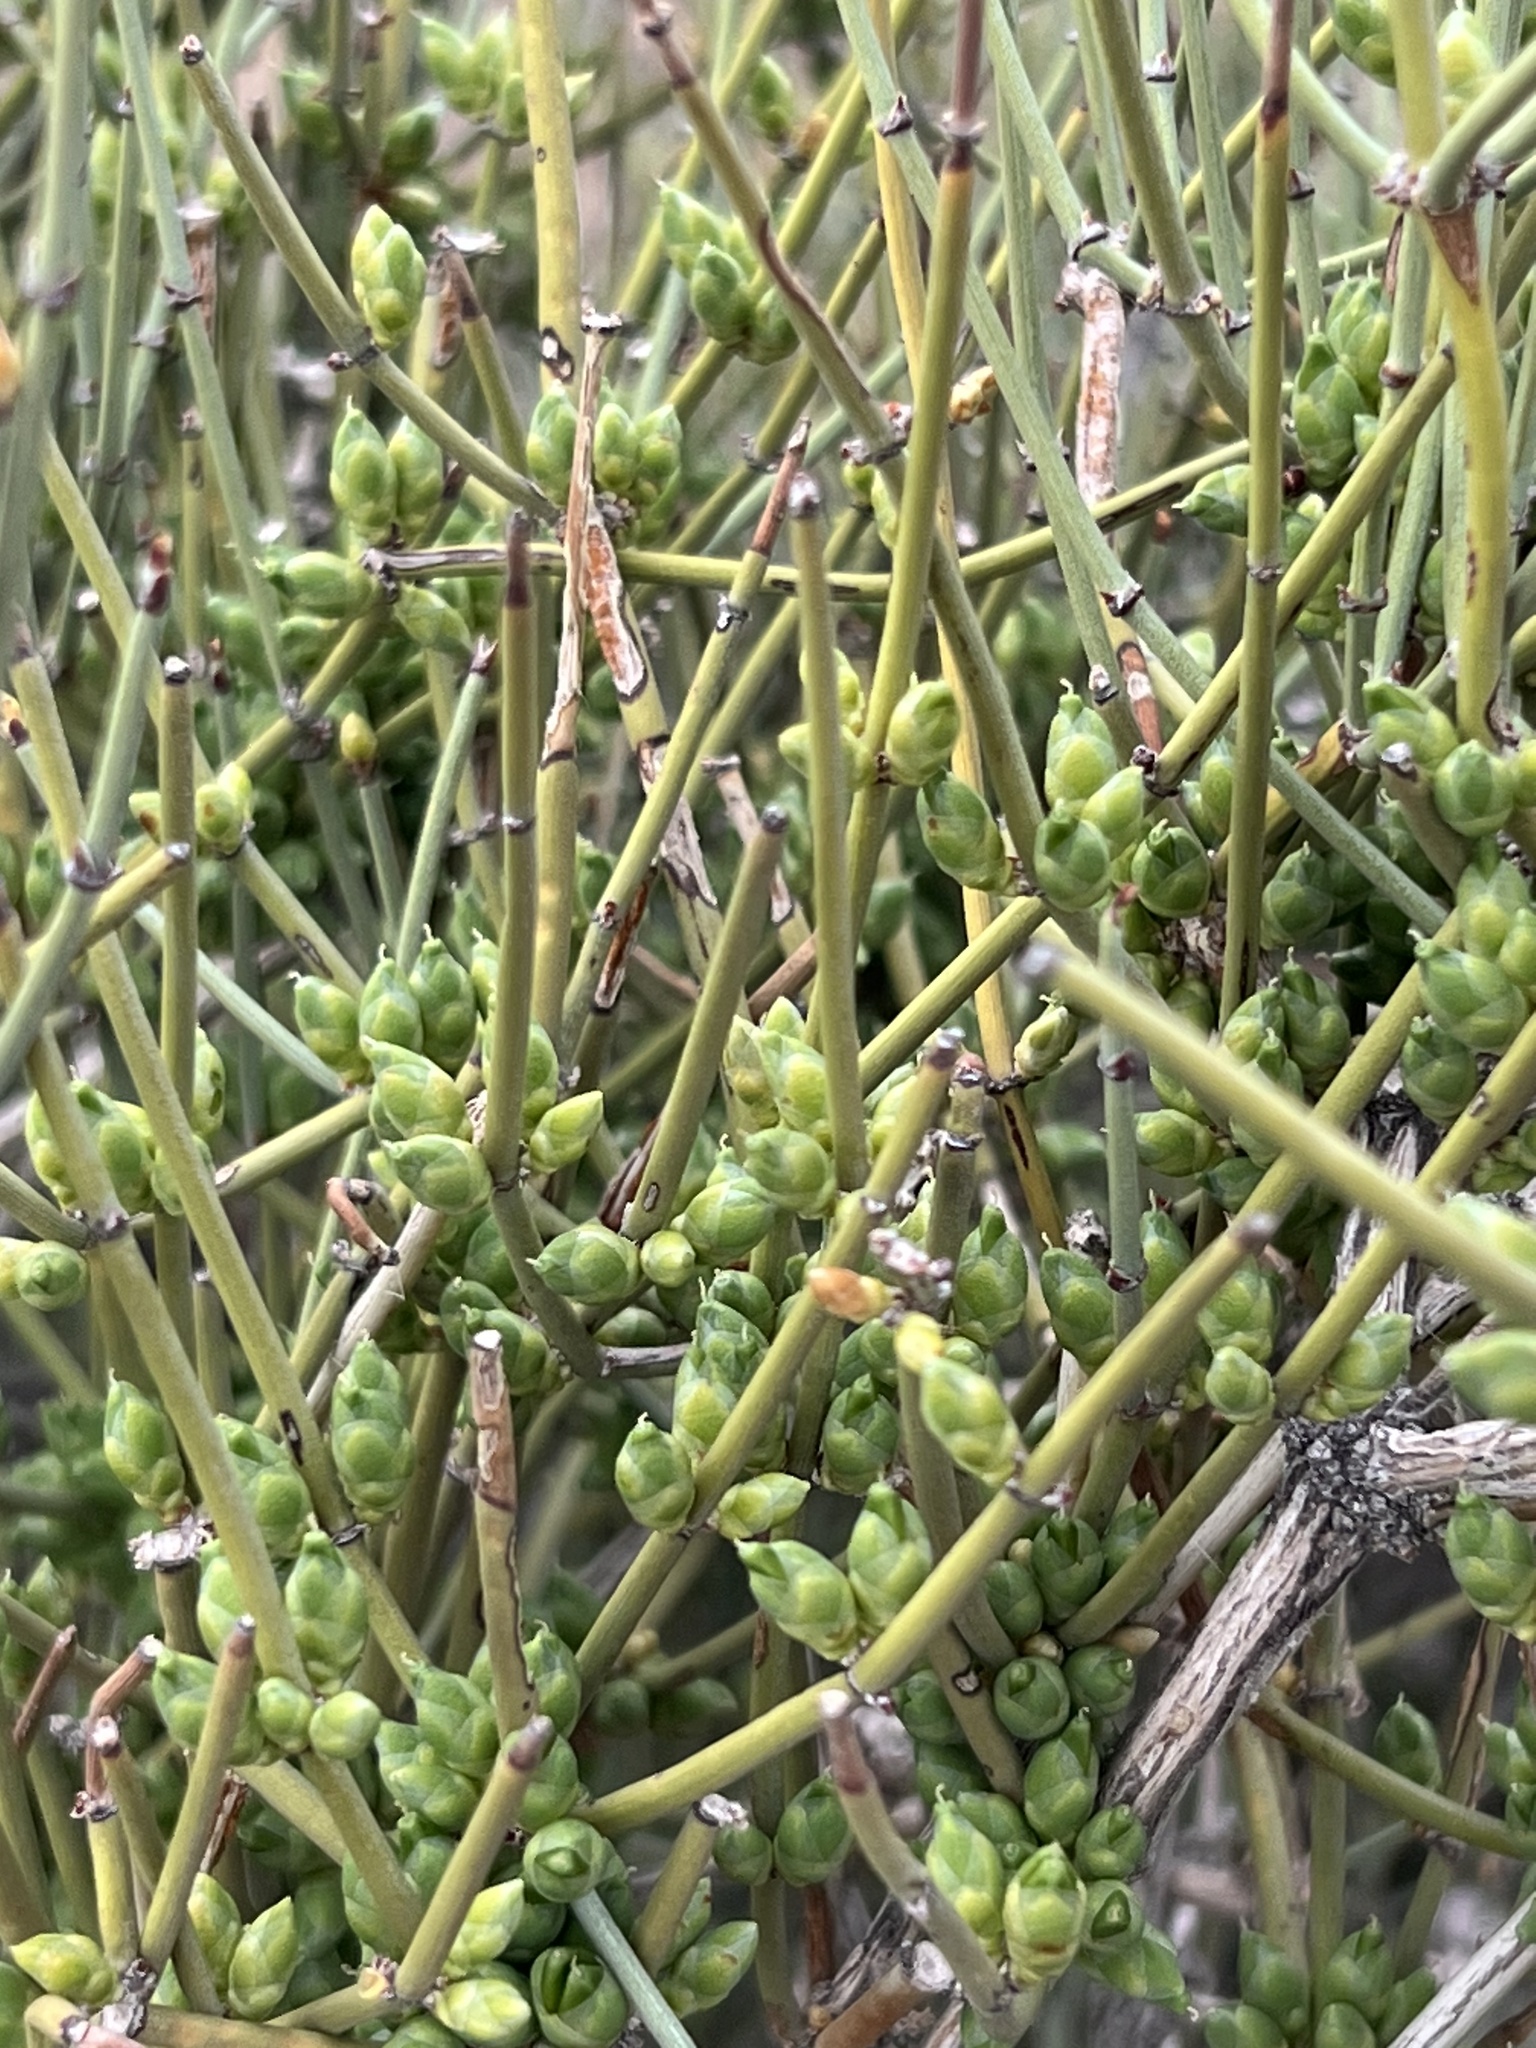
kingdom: Plantae
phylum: Tracheophyta
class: Gnetopsida
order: Ephedrales
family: Ephedraceae
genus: Ephedra
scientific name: Ephedra aspera
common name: Boundary ephedra
